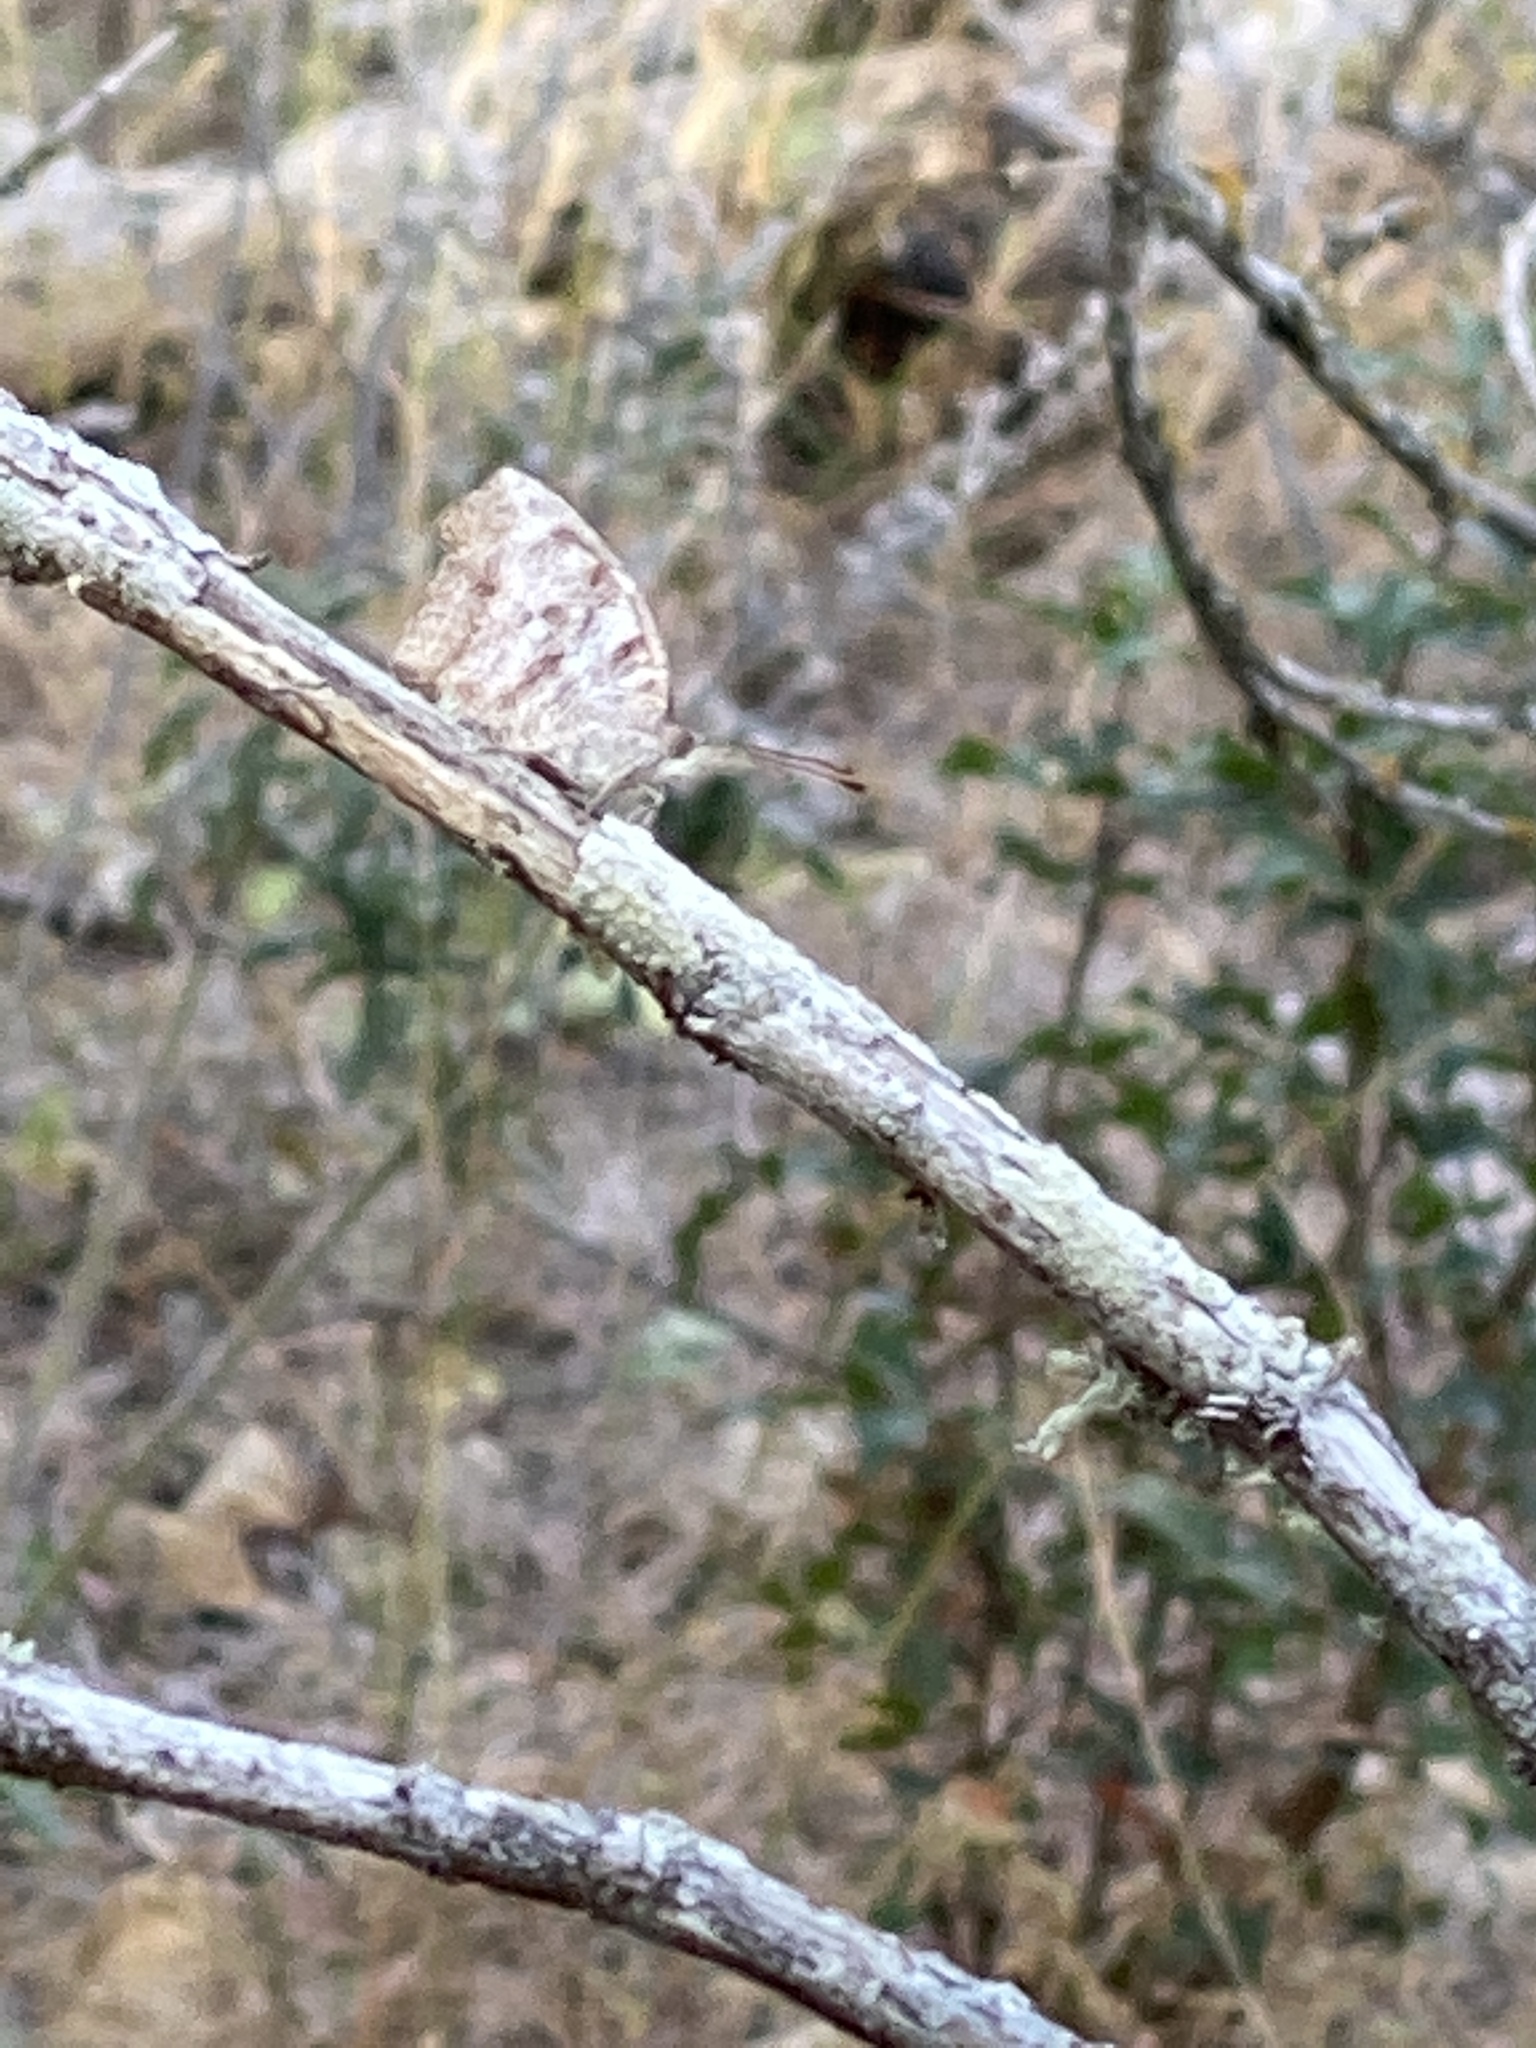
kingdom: Animalia
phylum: Arthropoda
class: Insecta
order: Lepidoptera
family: Nymphalidae
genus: Libytheana
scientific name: Libytheana carinenta
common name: American snout
